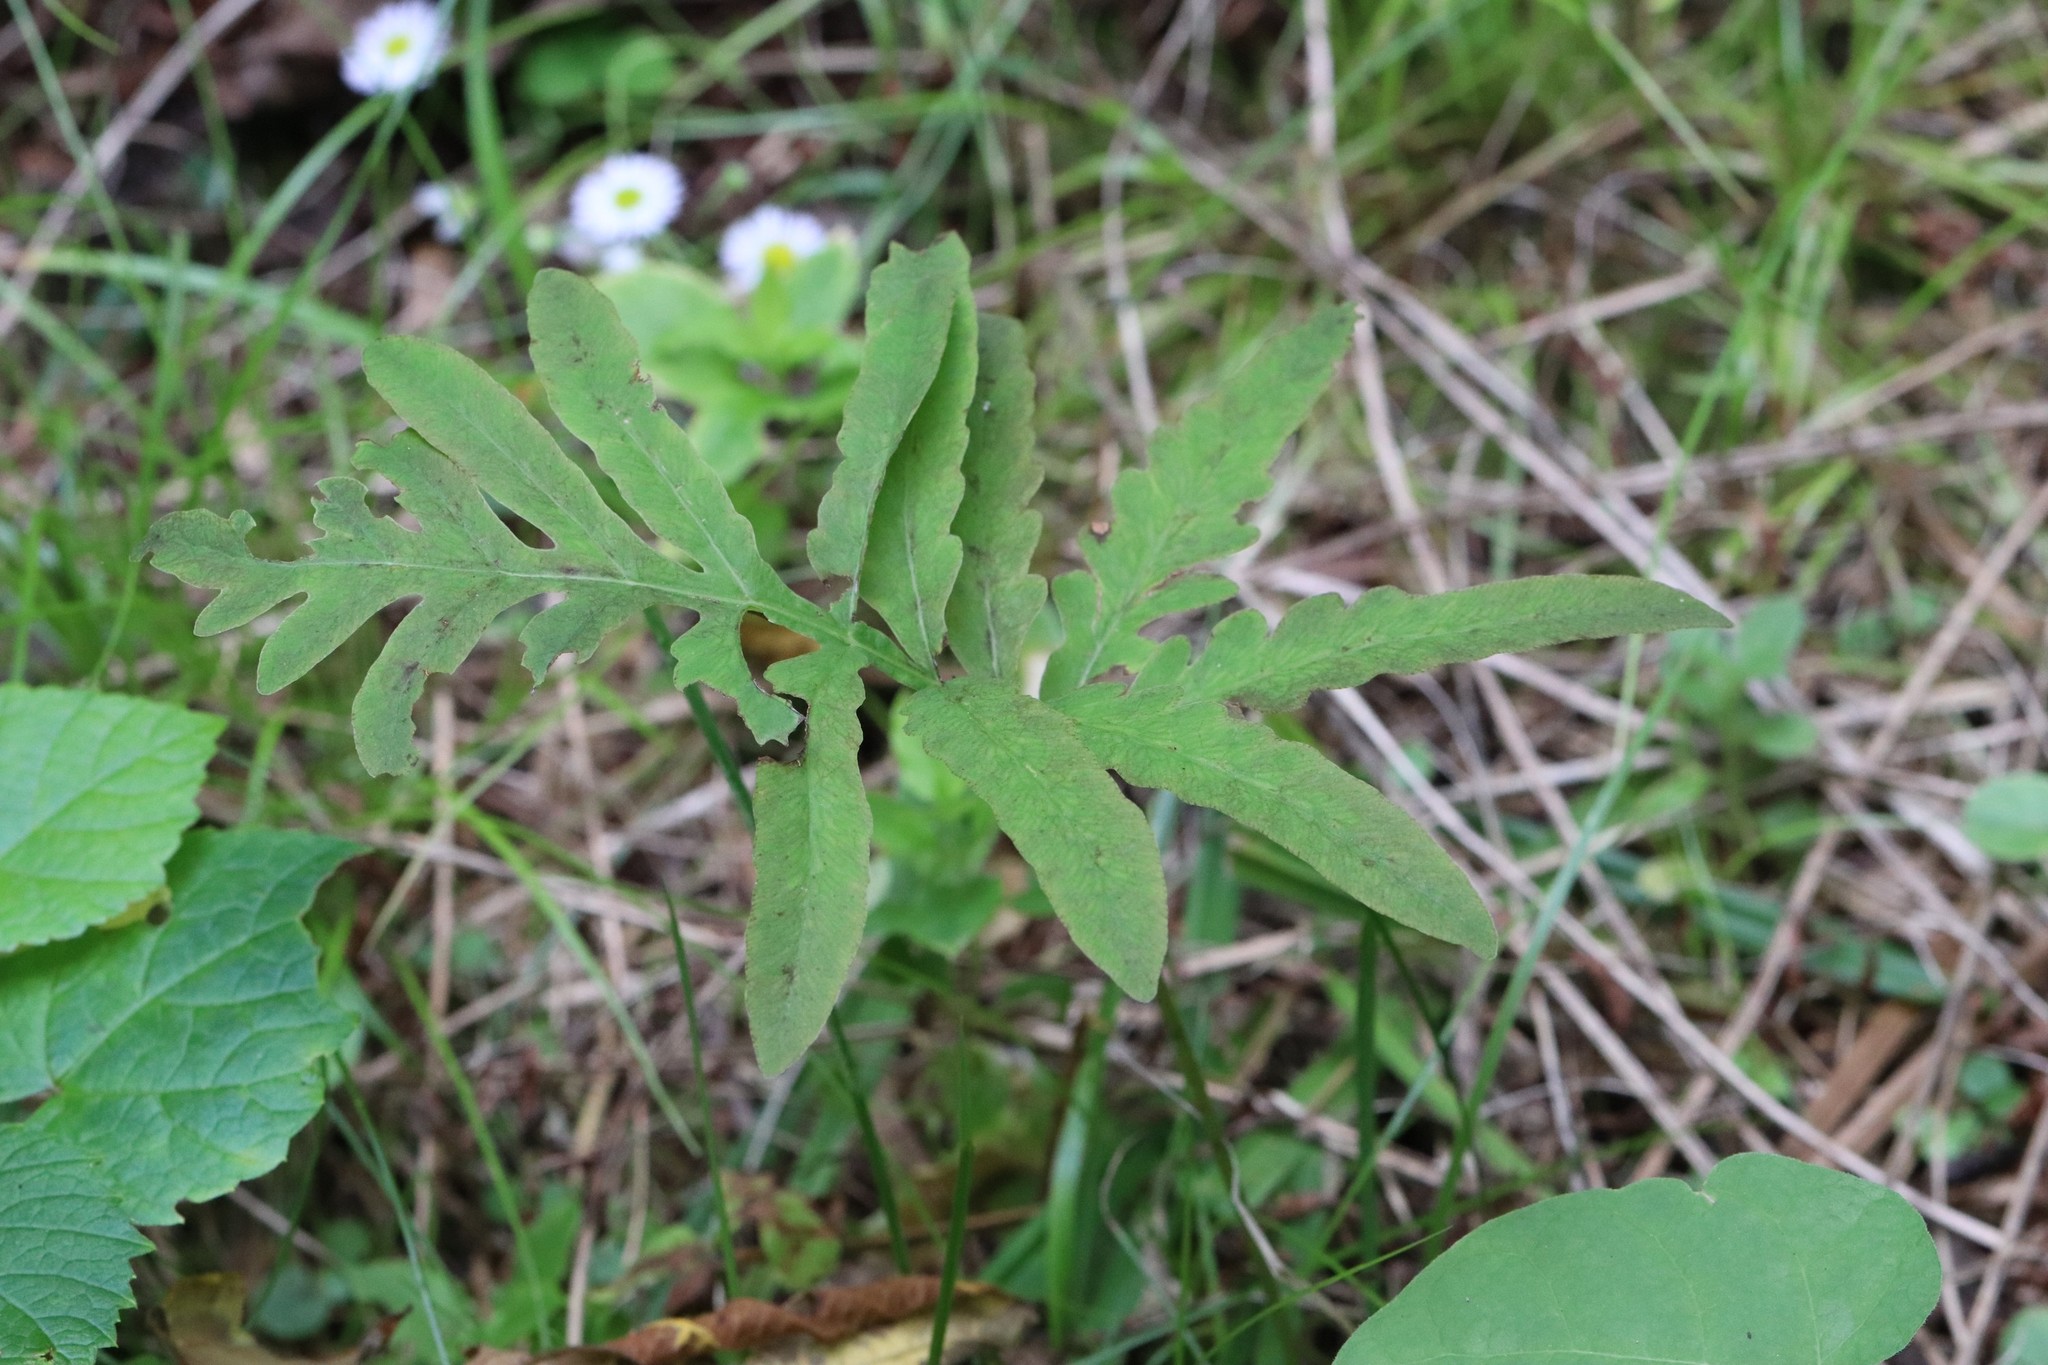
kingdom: Plantae
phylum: Tracheophyta
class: Polypodiopsida
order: Polypodiales
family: Onocleaceae
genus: Onoclea
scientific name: Onoclea sensibilis
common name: Sensitive fern
